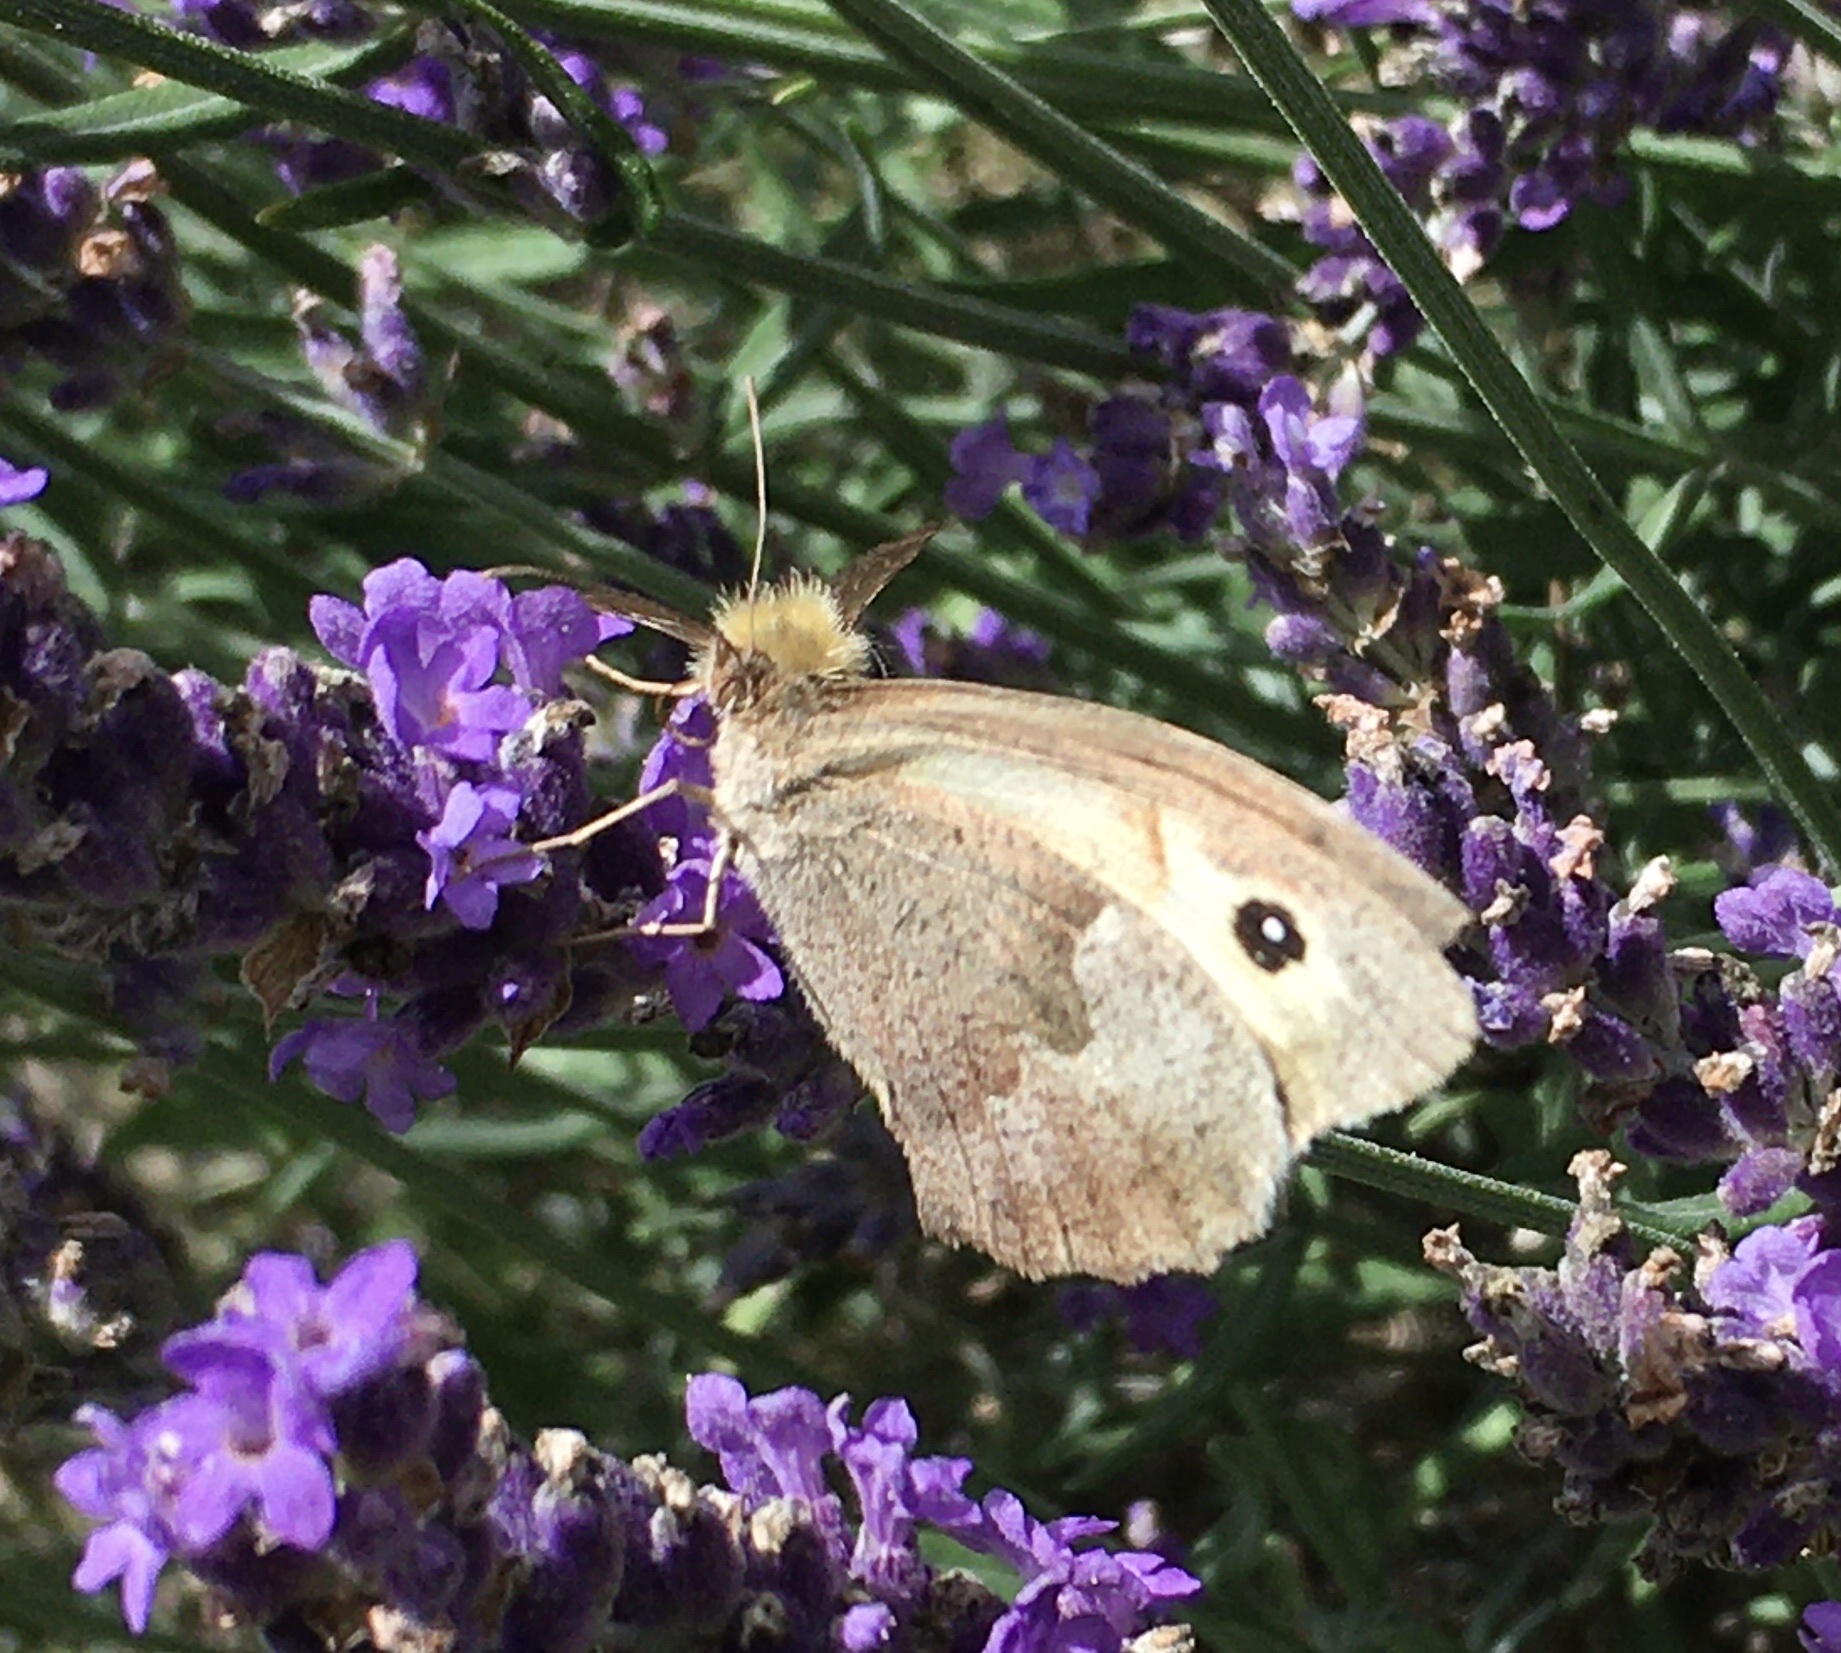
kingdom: Animalia
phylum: Arthropoda
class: Insecta
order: Lepidoptera
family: Nymphalidae
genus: Maniola
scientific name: Maniola jurtina
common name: Meadow brown
